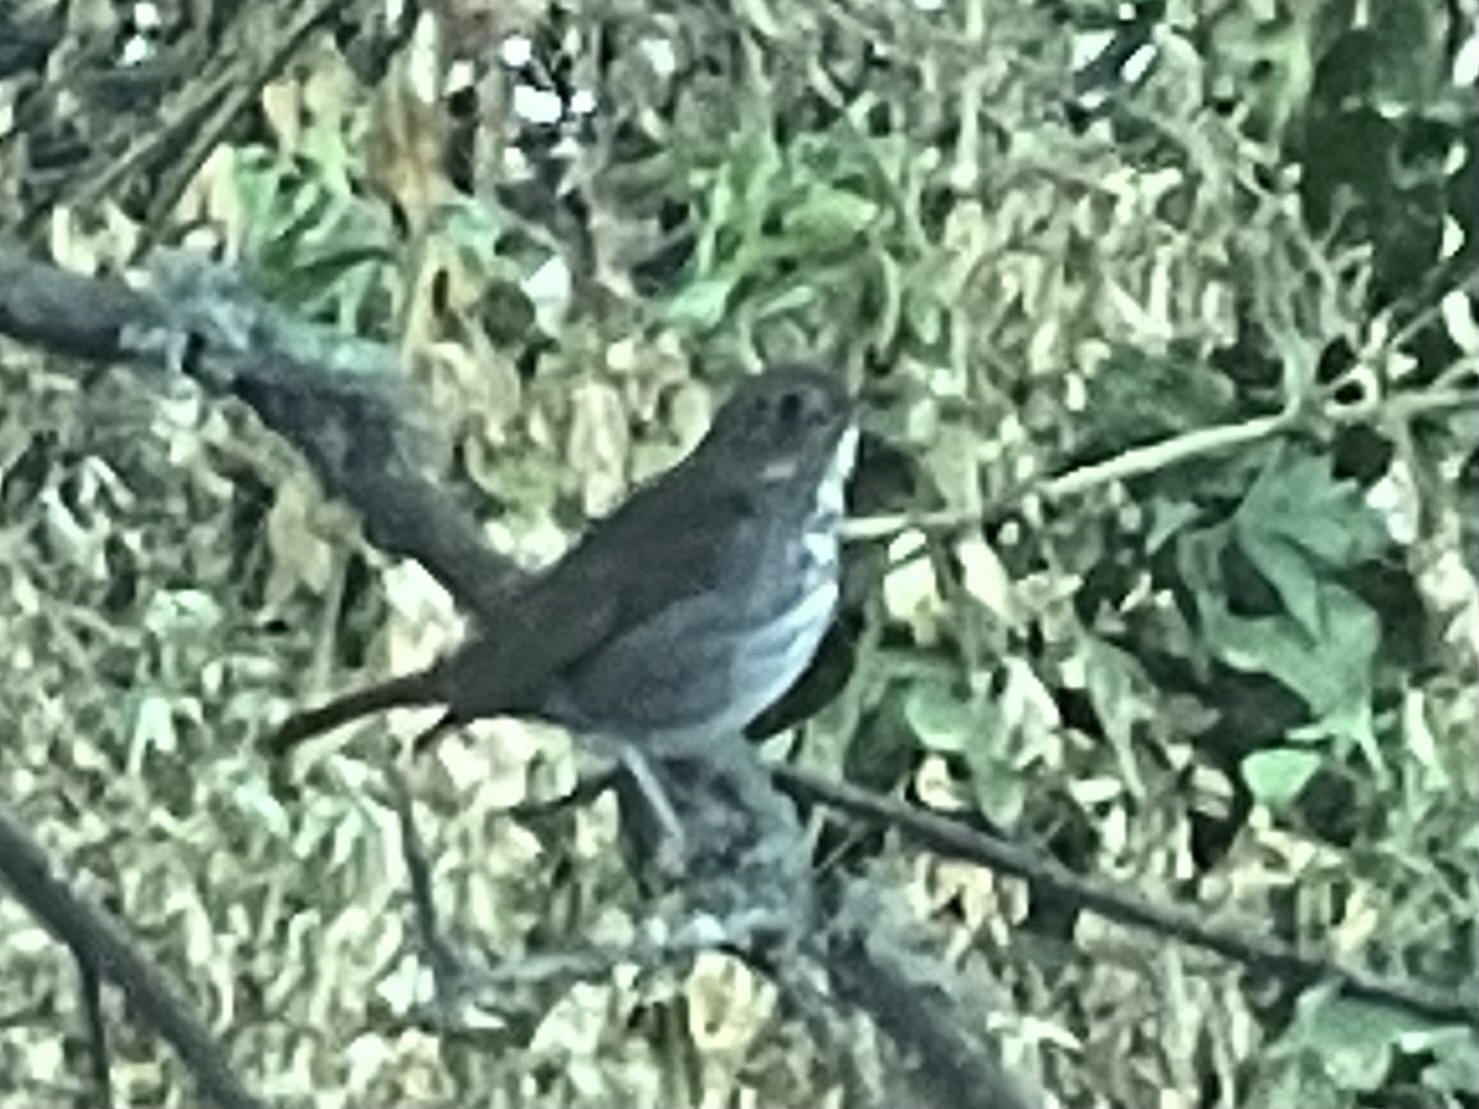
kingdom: Animalia
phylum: Chordata
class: Aves
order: Passeriformes
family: Turdidae
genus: Catharus
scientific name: Catharus guttatus
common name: Hermit thrush
